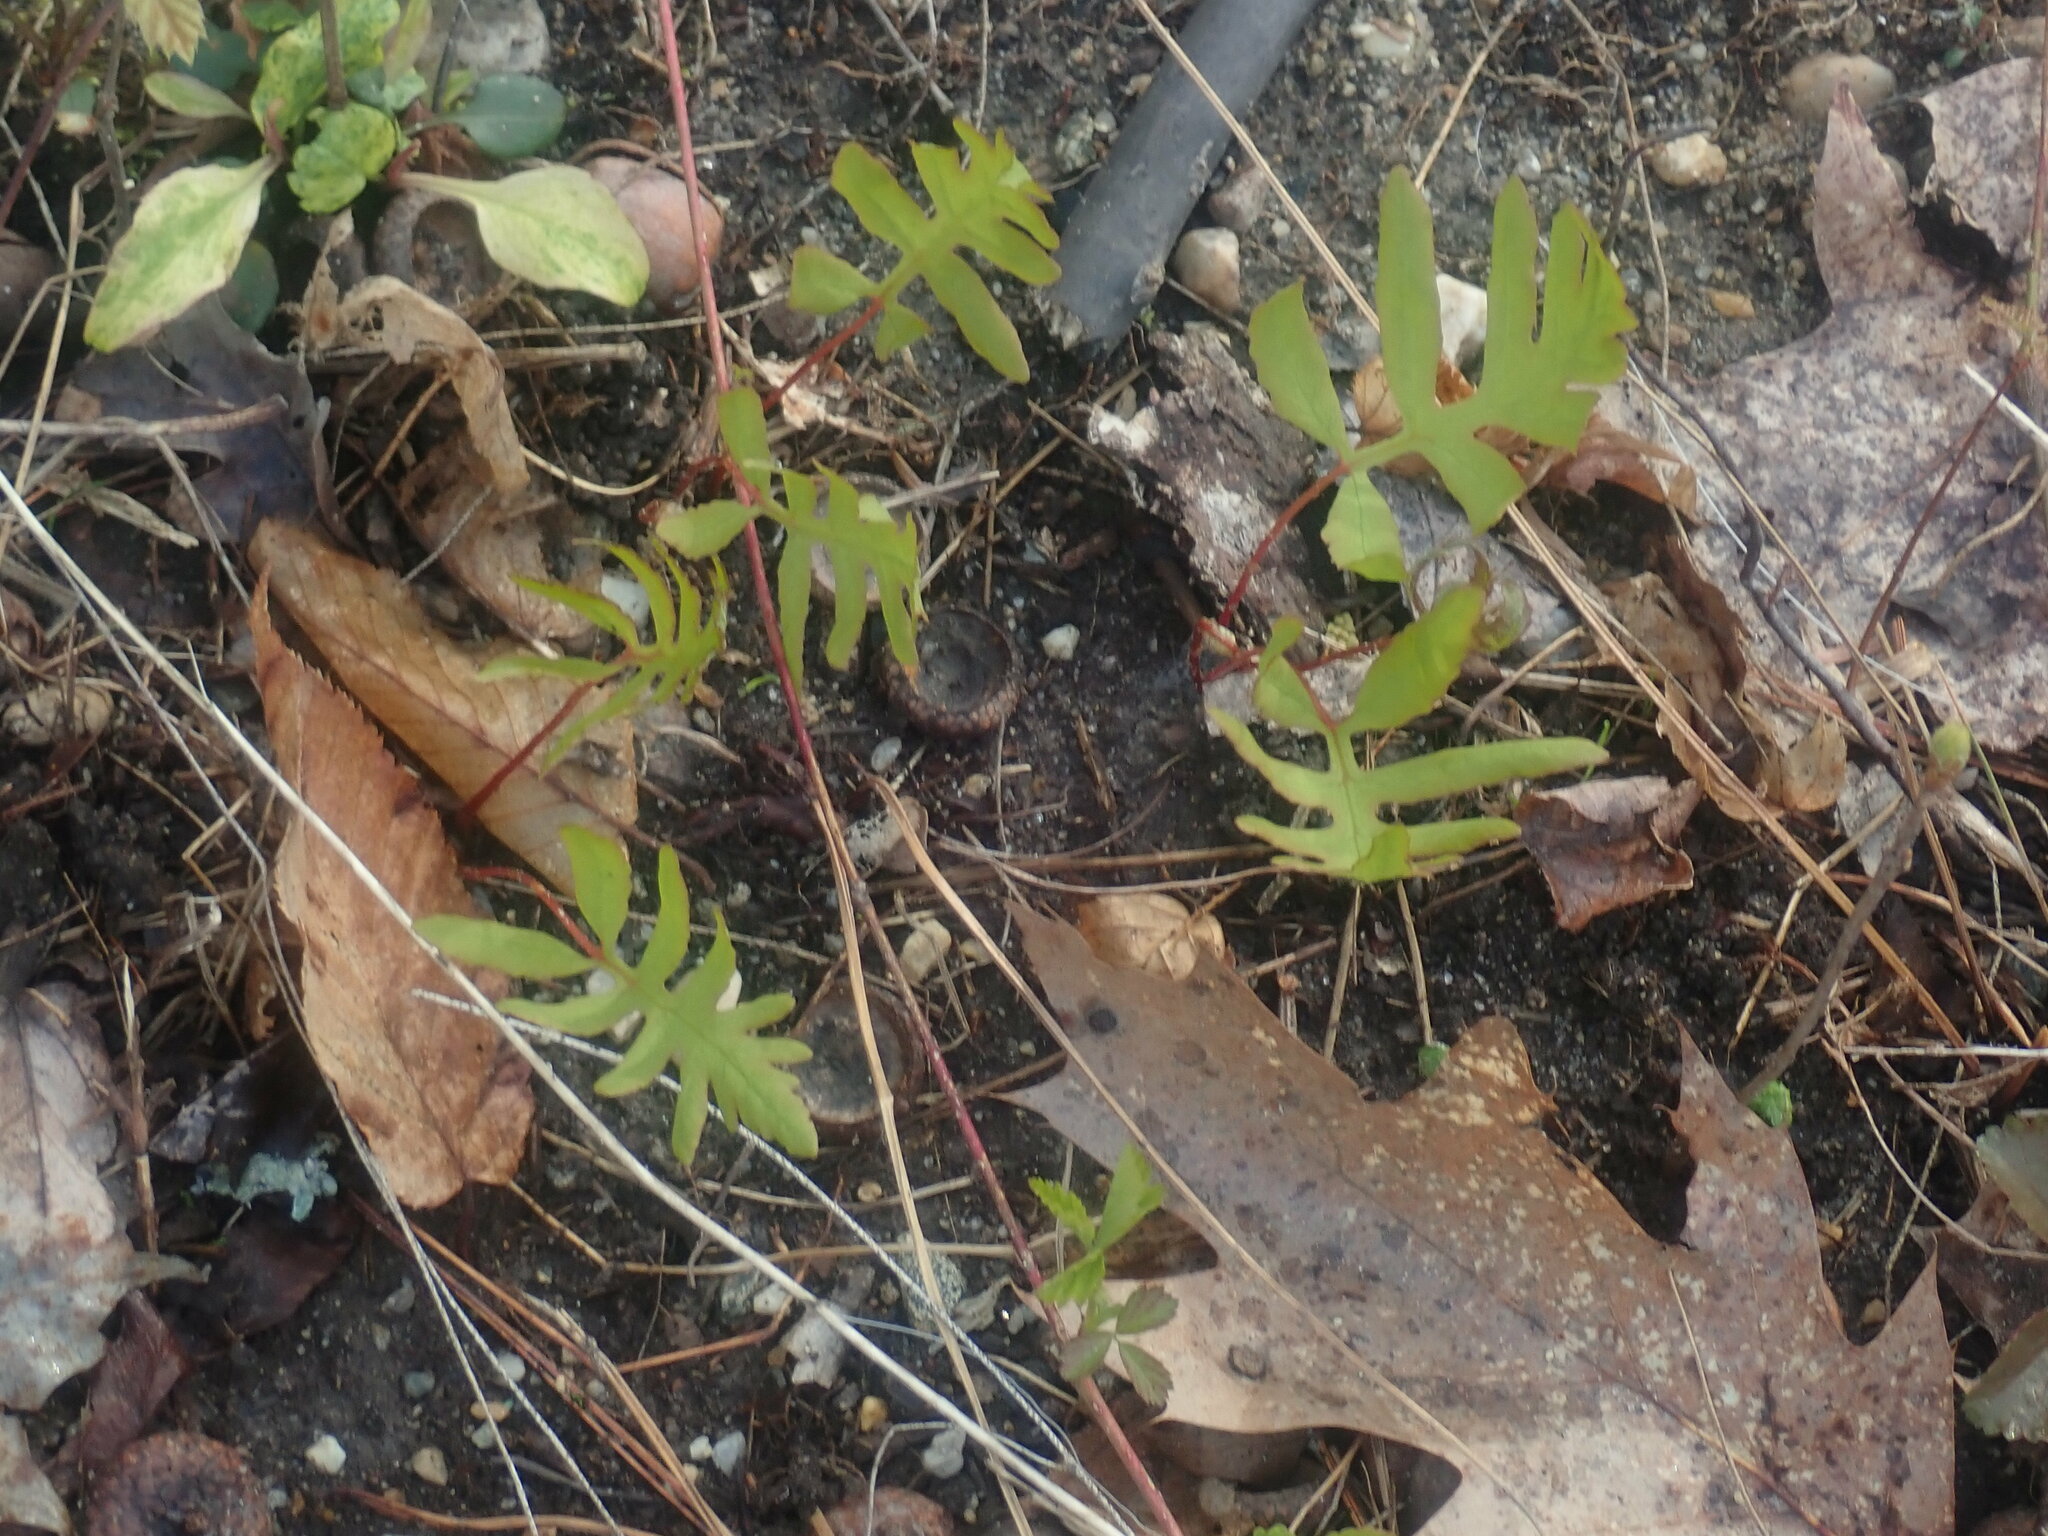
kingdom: Plantae
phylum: Tracheophyta
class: Polypodiopsida
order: Polypodiales
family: Onocleaceae
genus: Onoclea
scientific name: Onoclea sensibilis
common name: Sensitive fern
